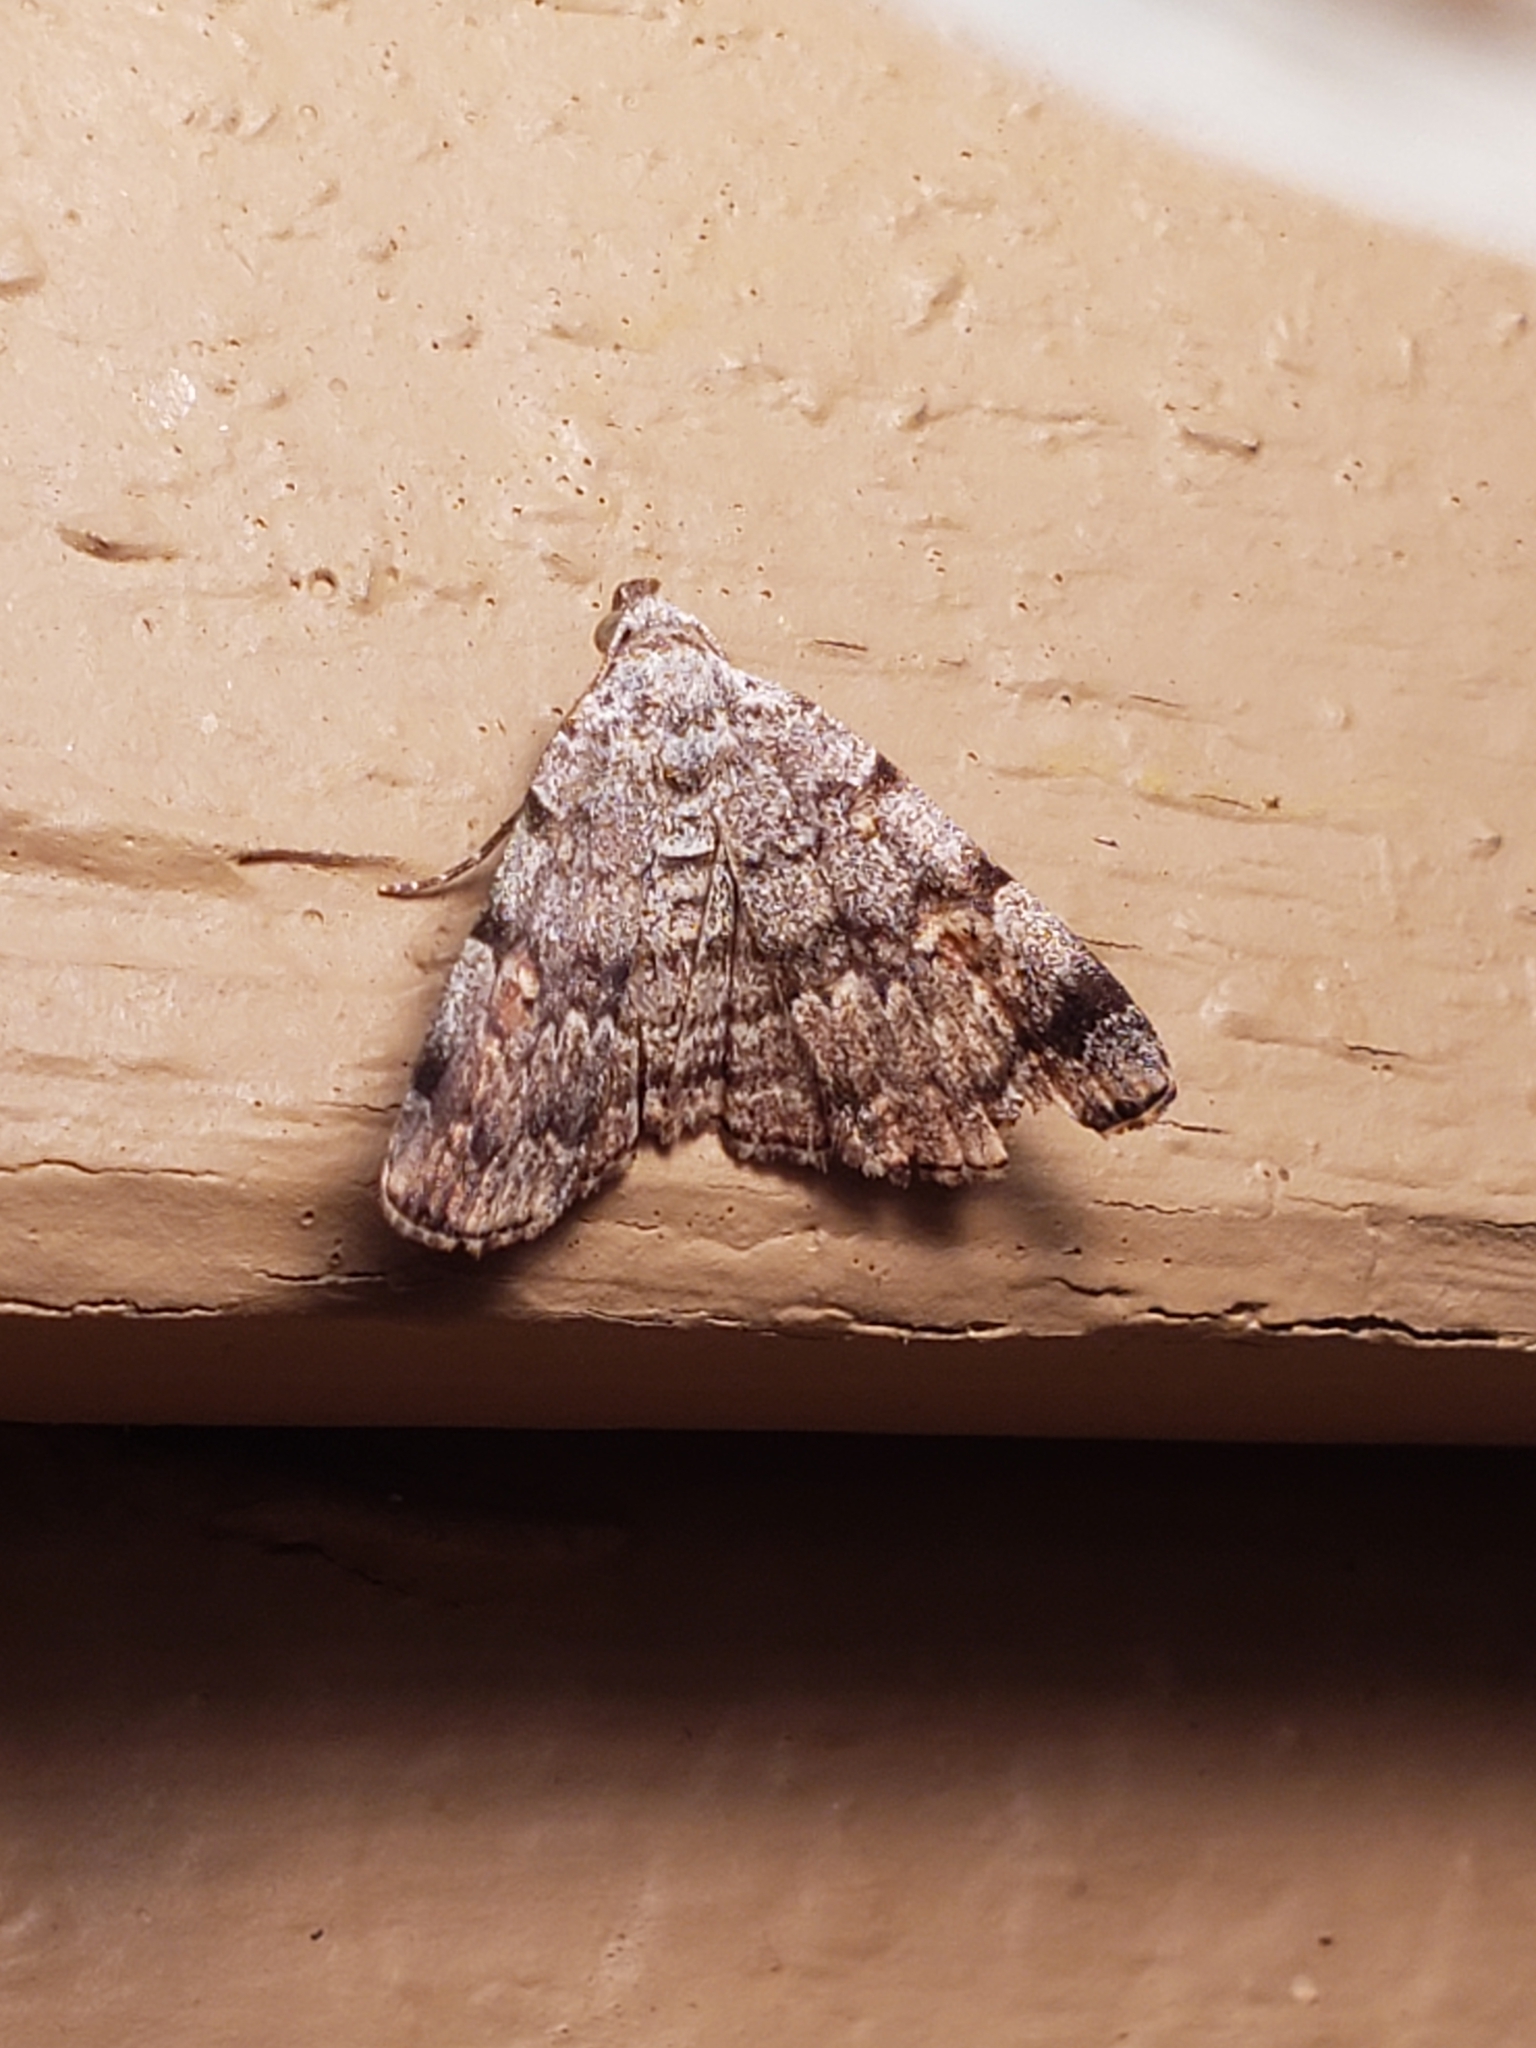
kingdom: Animalia
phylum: Arthropoda
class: Insecta
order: Lepidoptera
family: Erebidae
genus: Idia
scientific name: Idia americalis
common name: American idia moth
